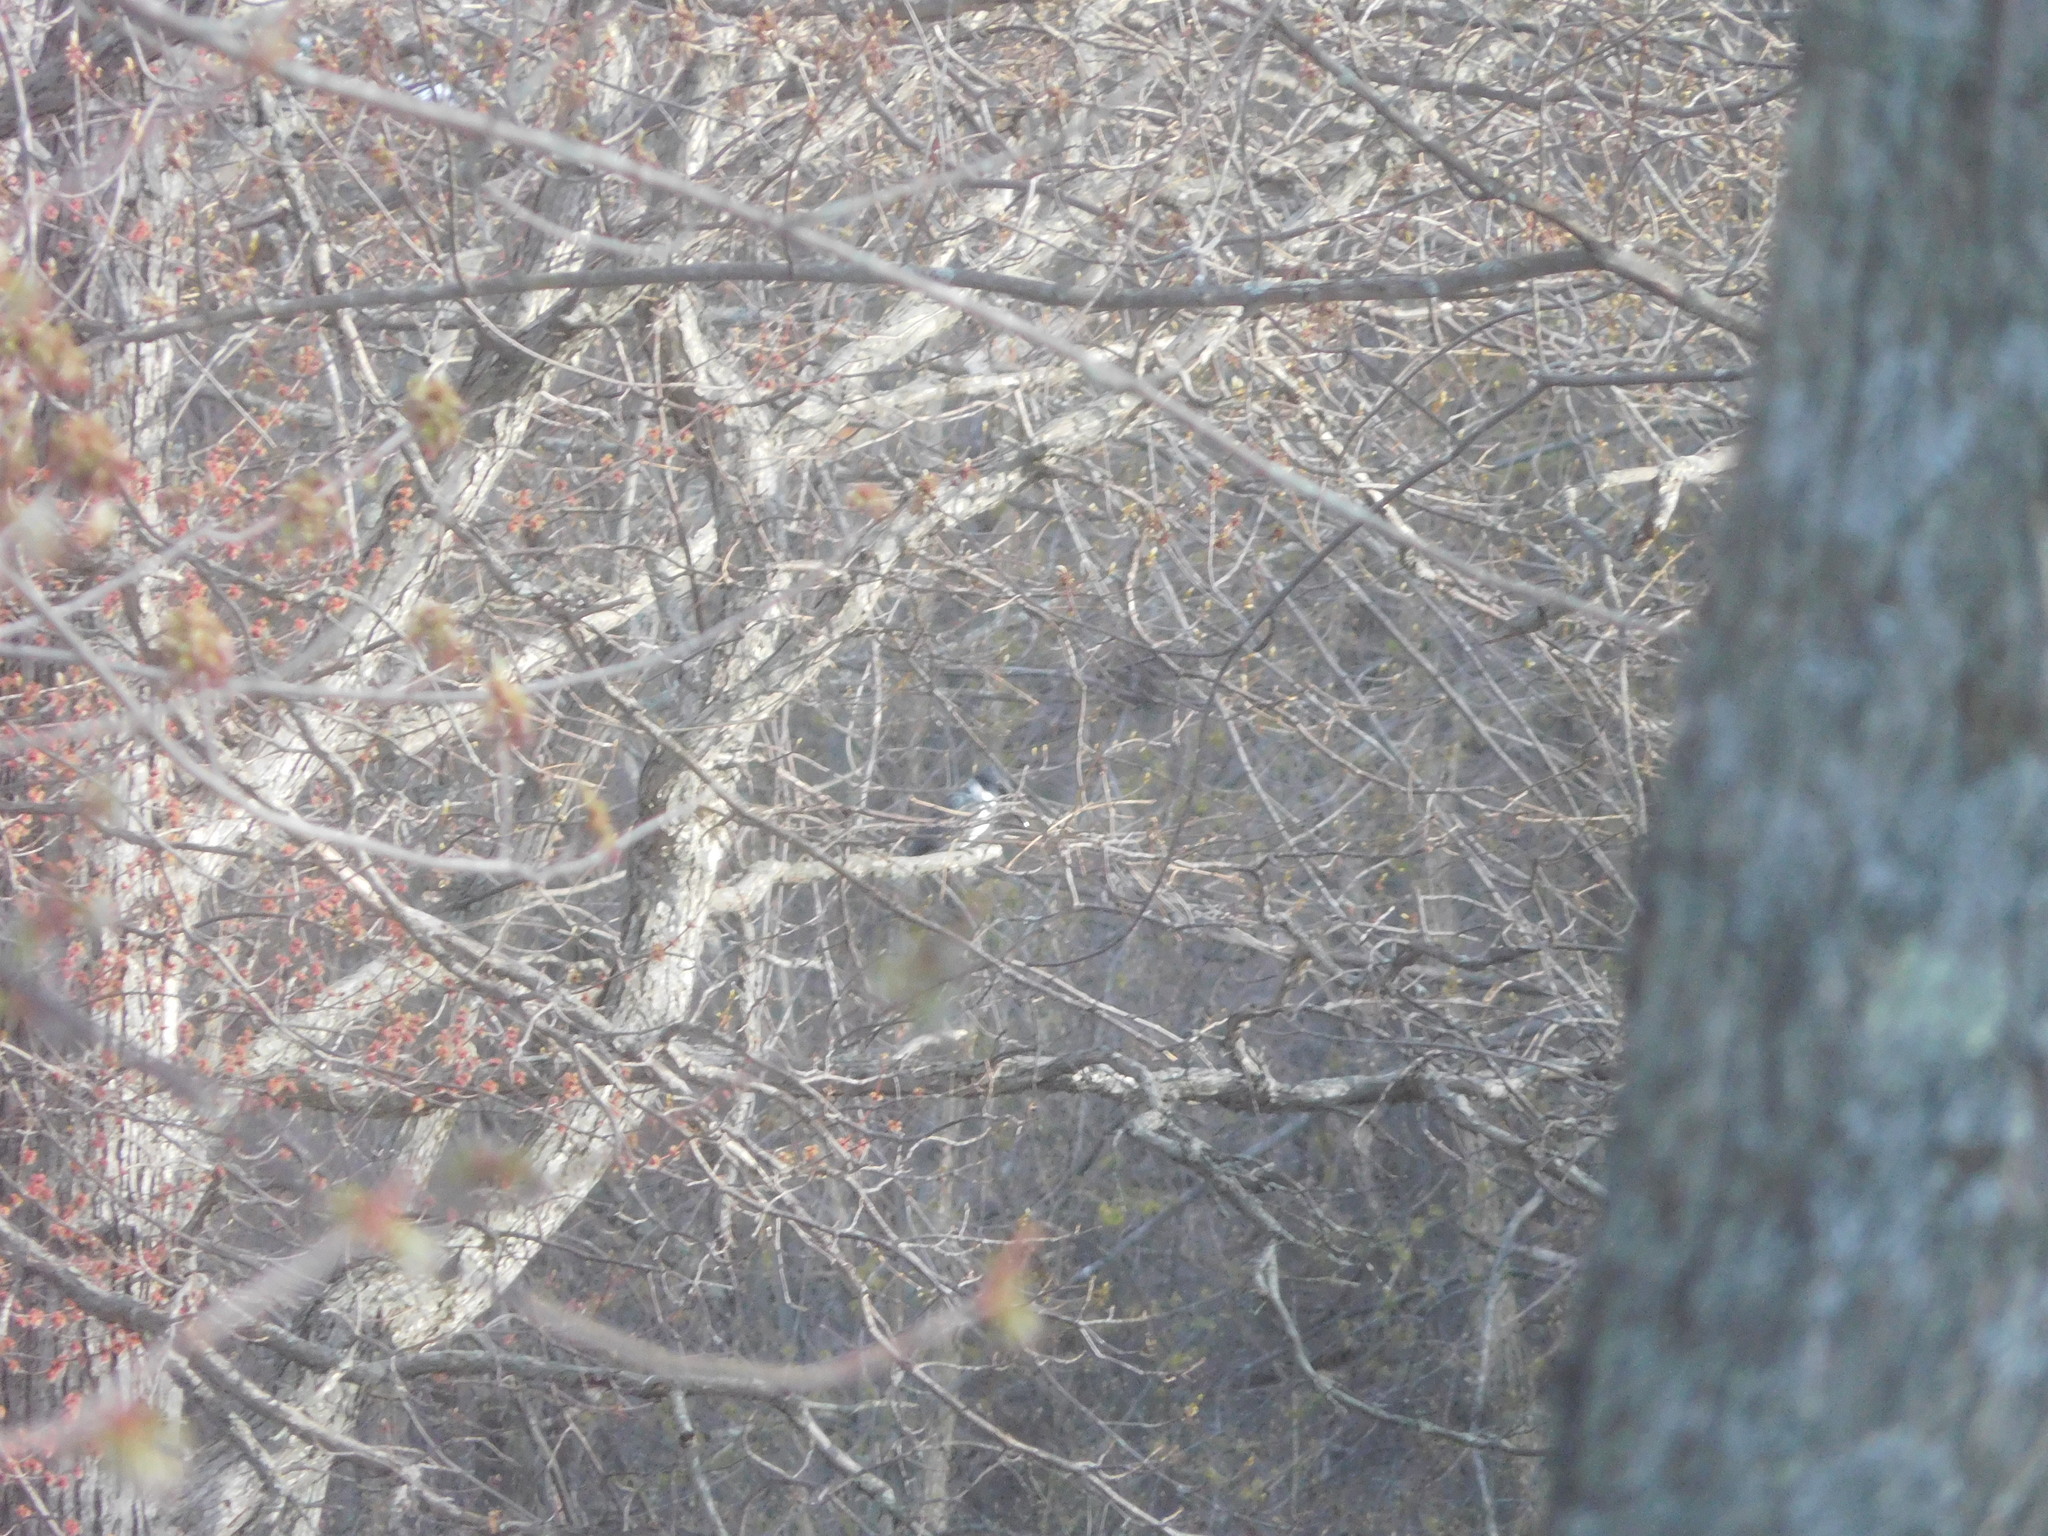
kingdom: Animalia
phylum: Chordata
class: Aves
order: Coraciiformes
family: Alcedinidae
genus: Megaceryle
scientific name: Megaceryle alcyon
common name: Belted kingfisher
